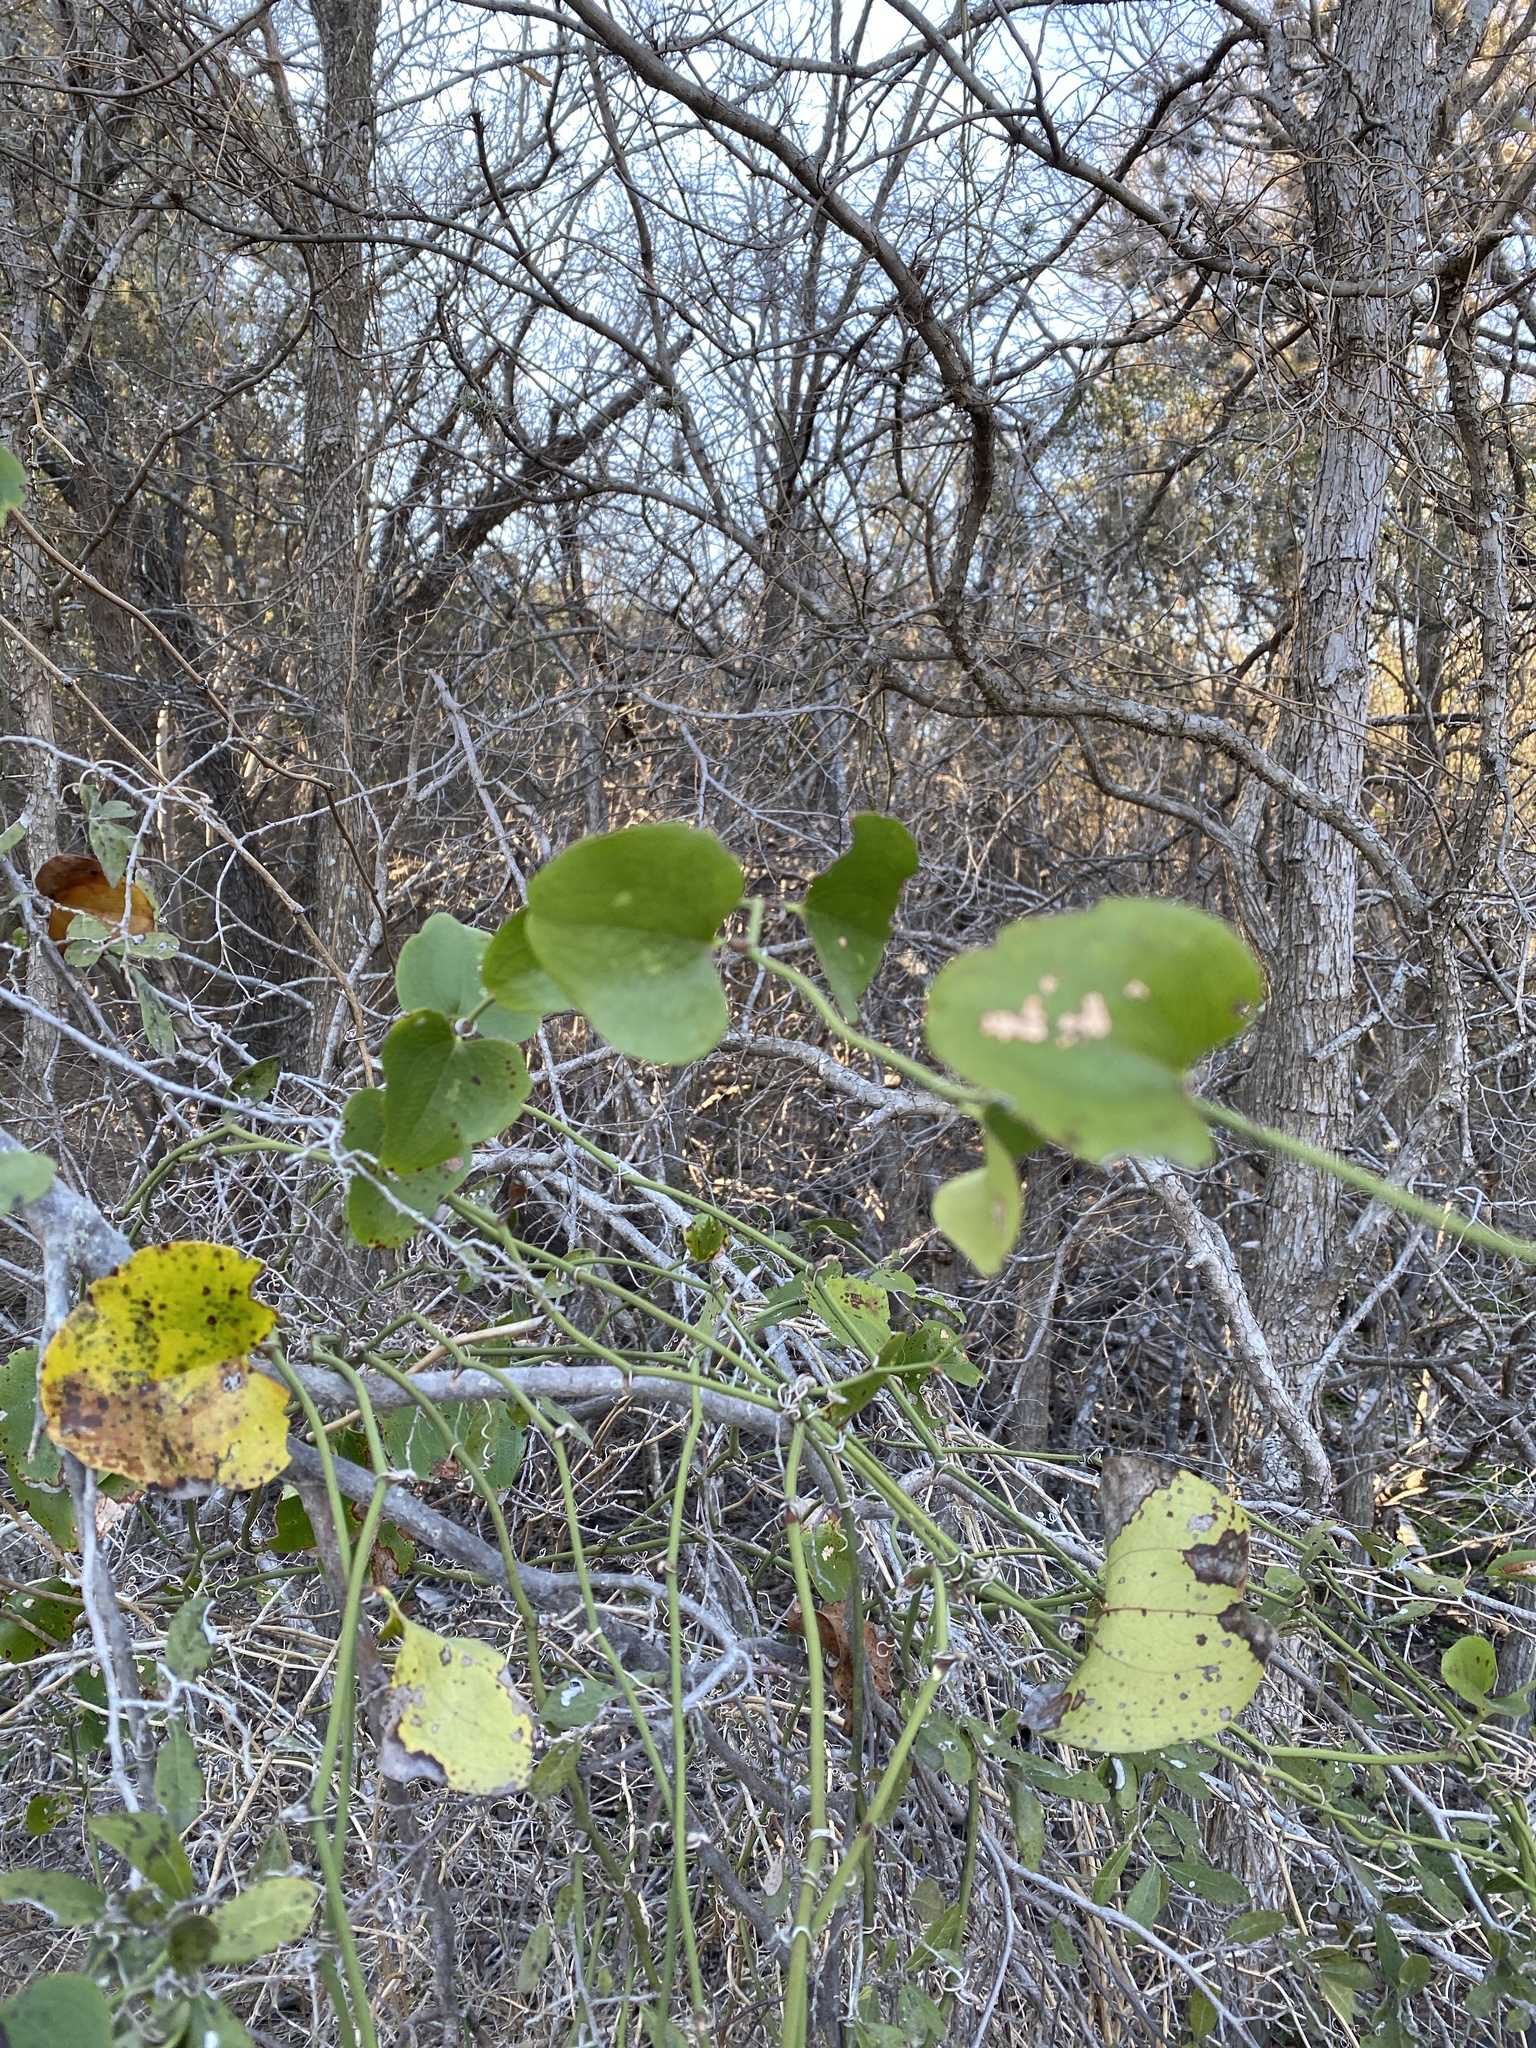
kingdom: Plantae
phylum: Tracheophyta
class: Liliopsida
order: Liliales
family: Smilacaceae
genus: Smilax
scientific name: Smilax bona-nox
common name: Catbrier
